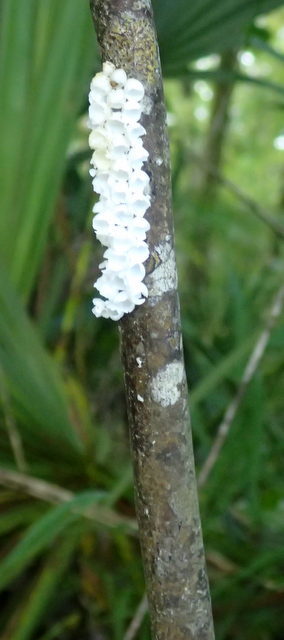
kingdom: Animalia
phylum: Mollusca
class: Gastropoda
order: Architaenioglossa
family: Ampullariidae
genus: Pomacea
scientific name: Pomacea paludosa
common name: Florida applesnail
